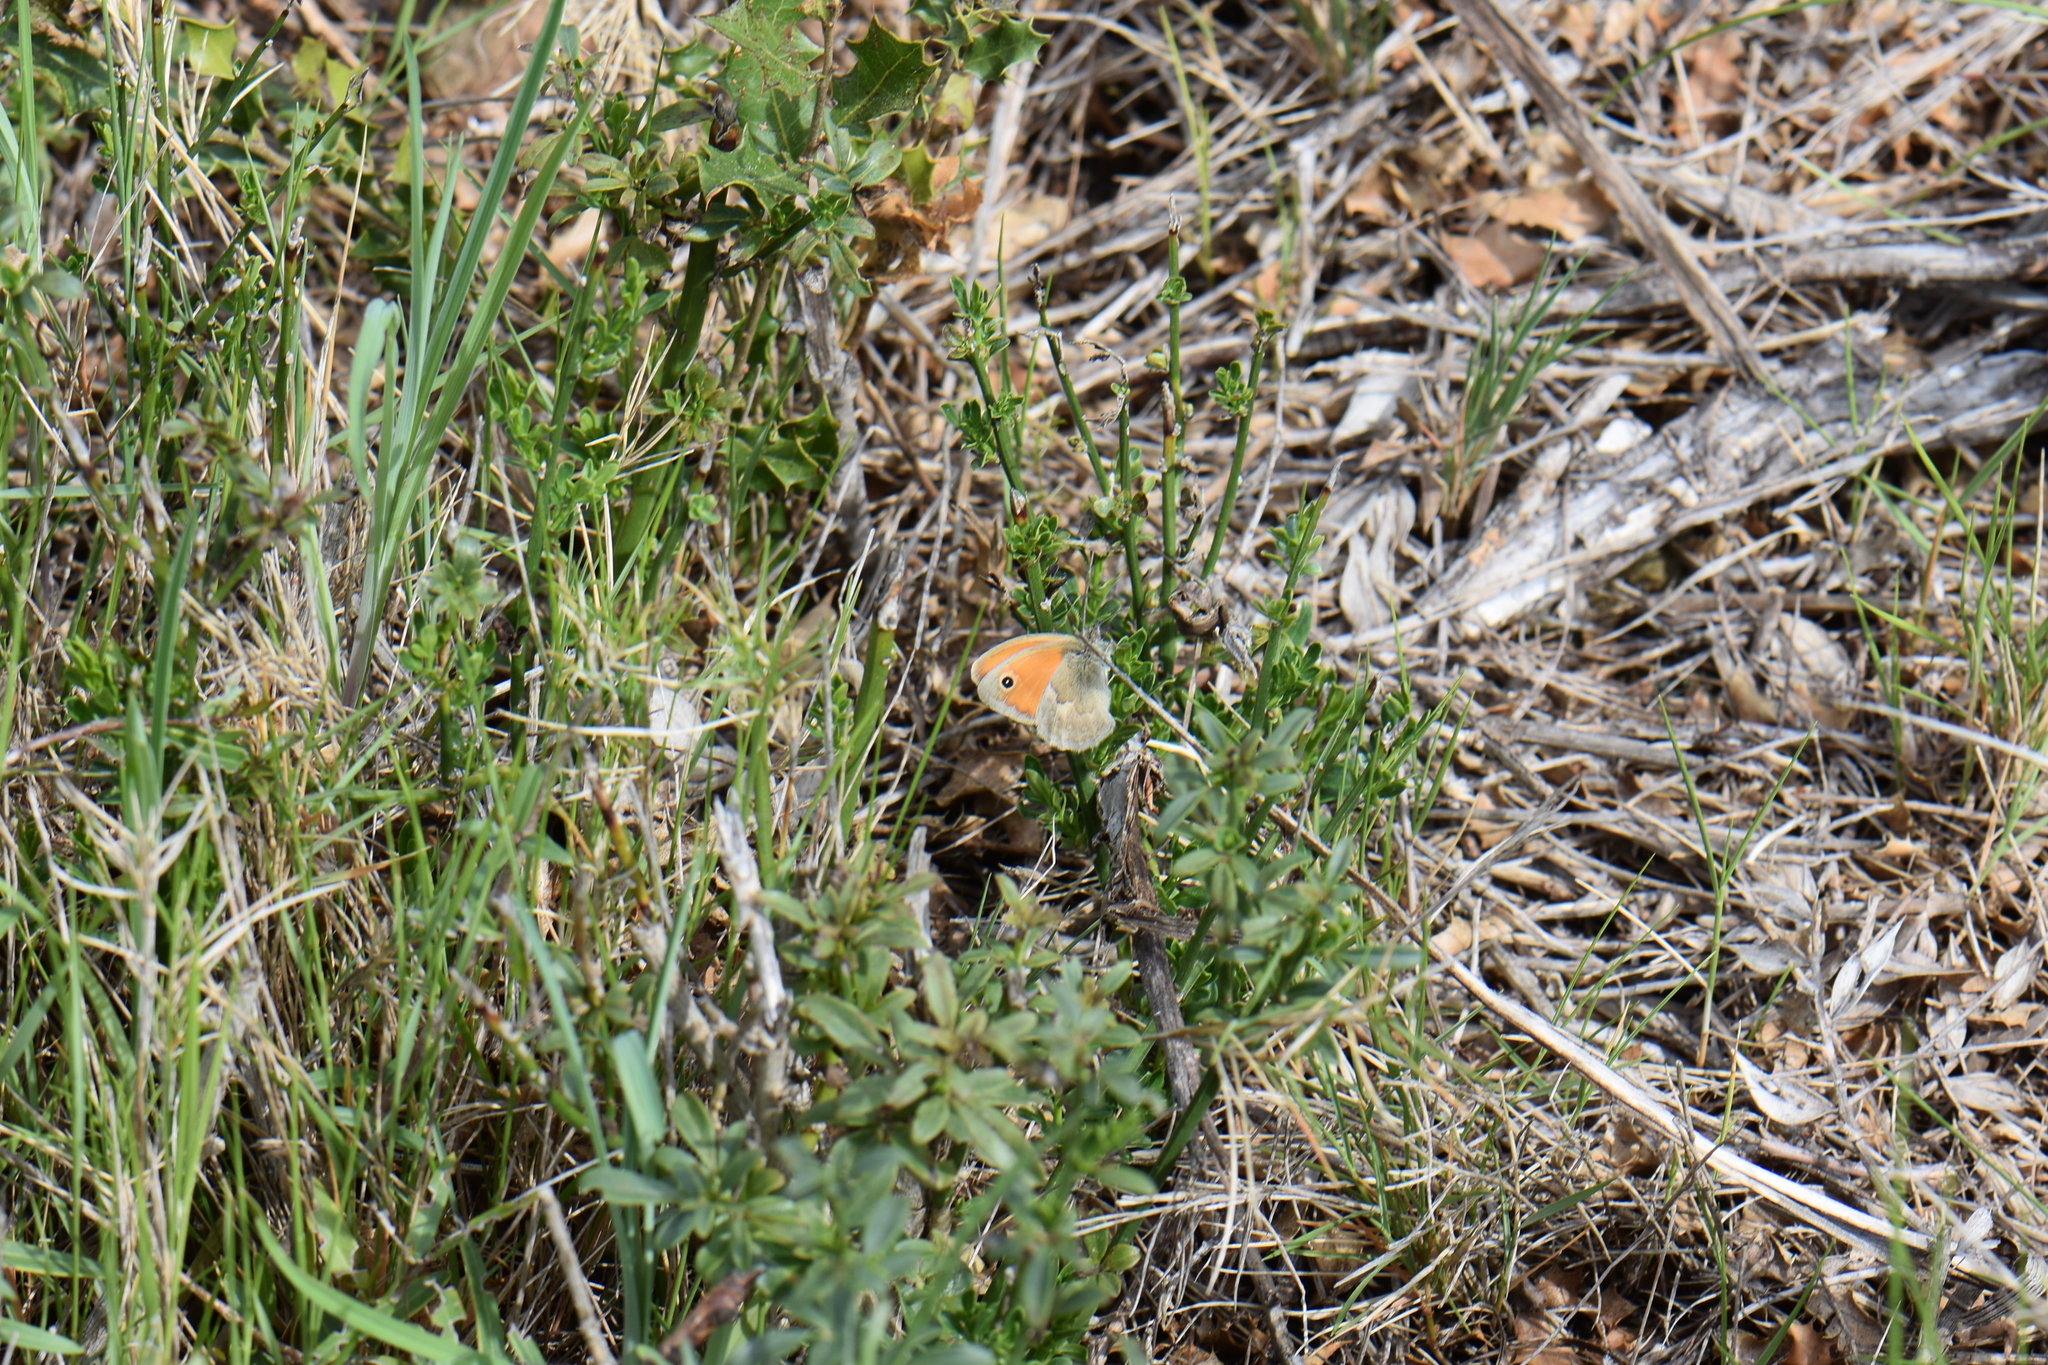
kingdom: Animalia
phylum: Arthropoda
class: Insecta
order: Lepidoptera
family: Nymphalidae
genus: Coenonympha
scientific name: Coenonympha pamphilus
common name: Small heath
